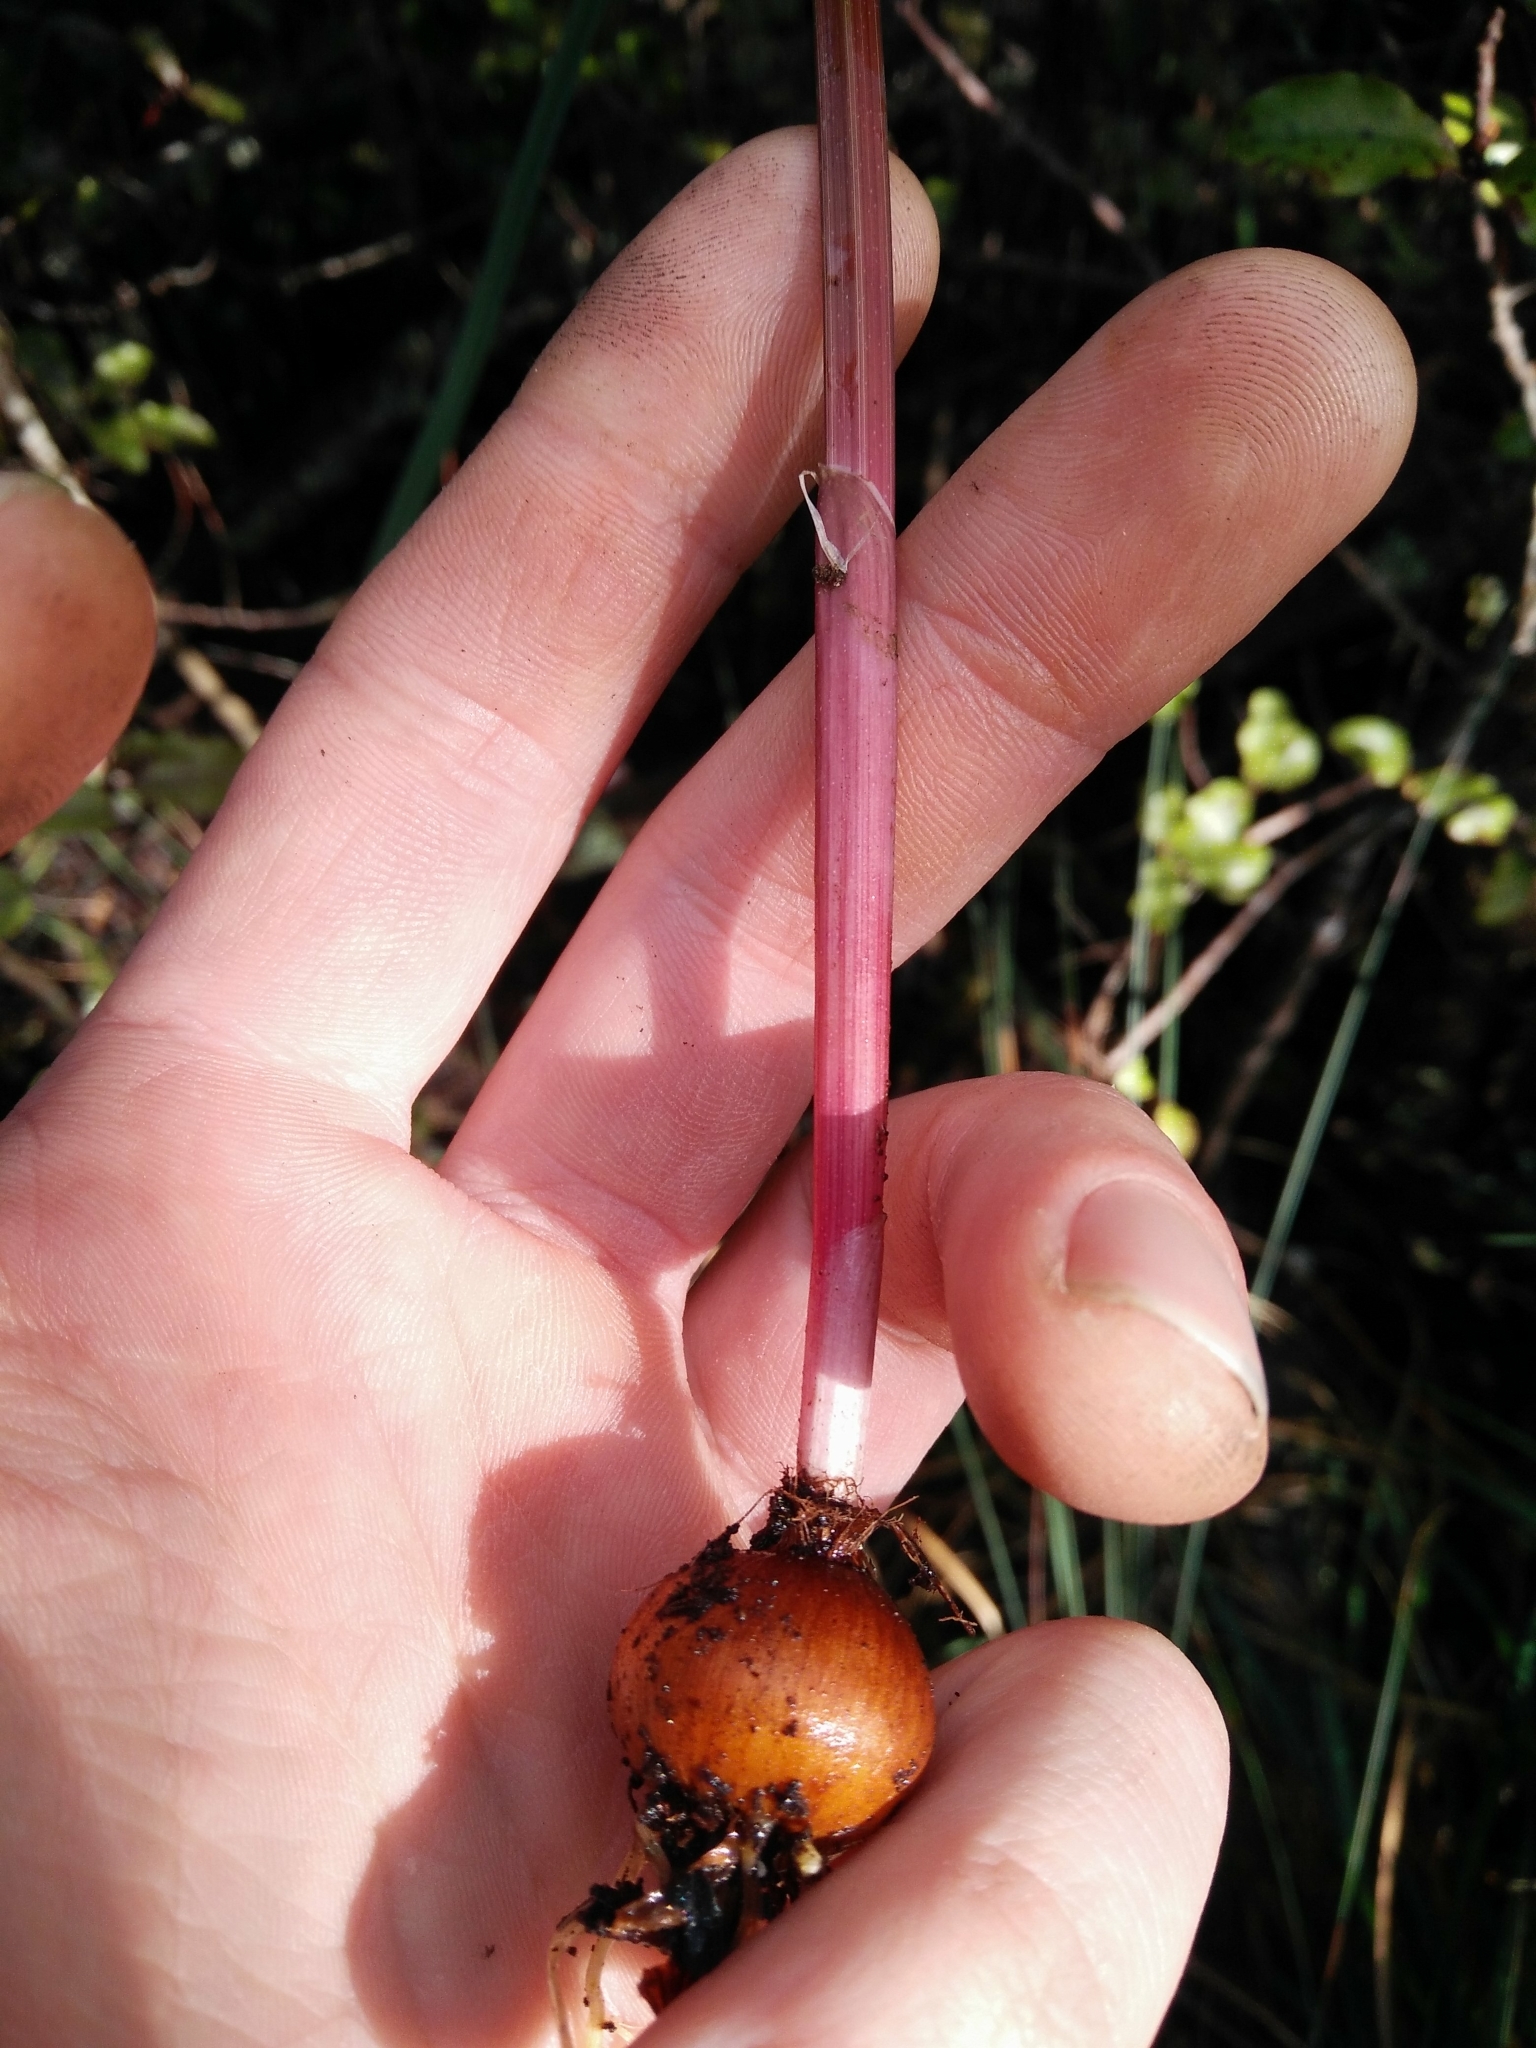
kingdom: Plantae
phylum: Tracheophyta
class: Liliopsida
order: Asparagales
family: Iridaceae
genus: Gladiolus
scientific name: Gladiolus undulatus
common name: Large painted-lady
